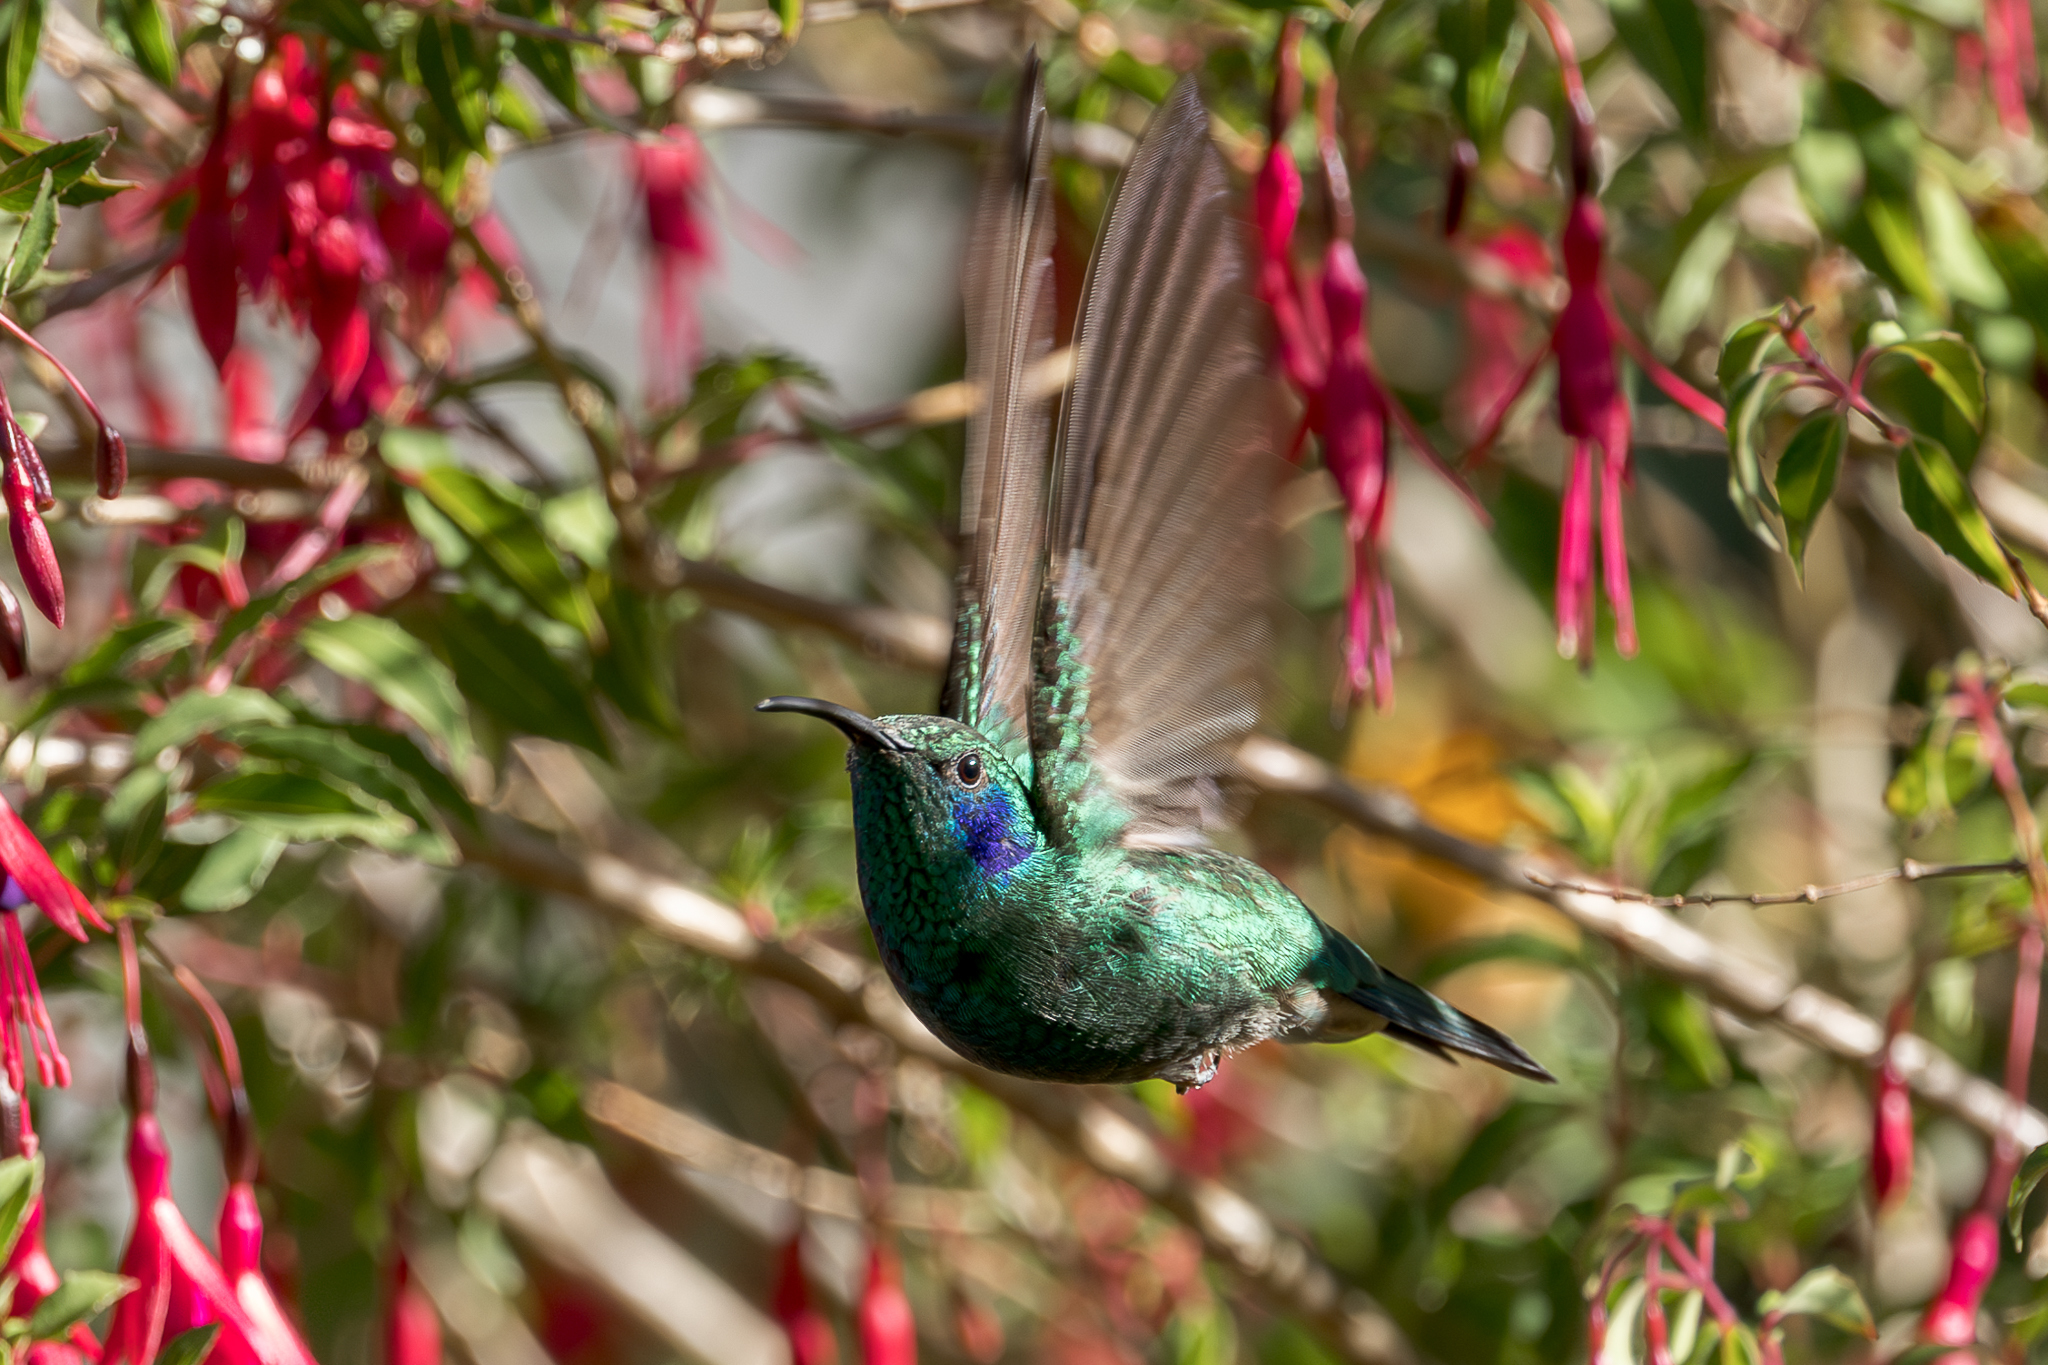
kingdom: Animalia
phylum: Chordata
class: Aves
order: Apodiformes
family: Trochilidae
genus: Colibri
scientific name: Colibri cyanotus
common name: Lesser violetear
